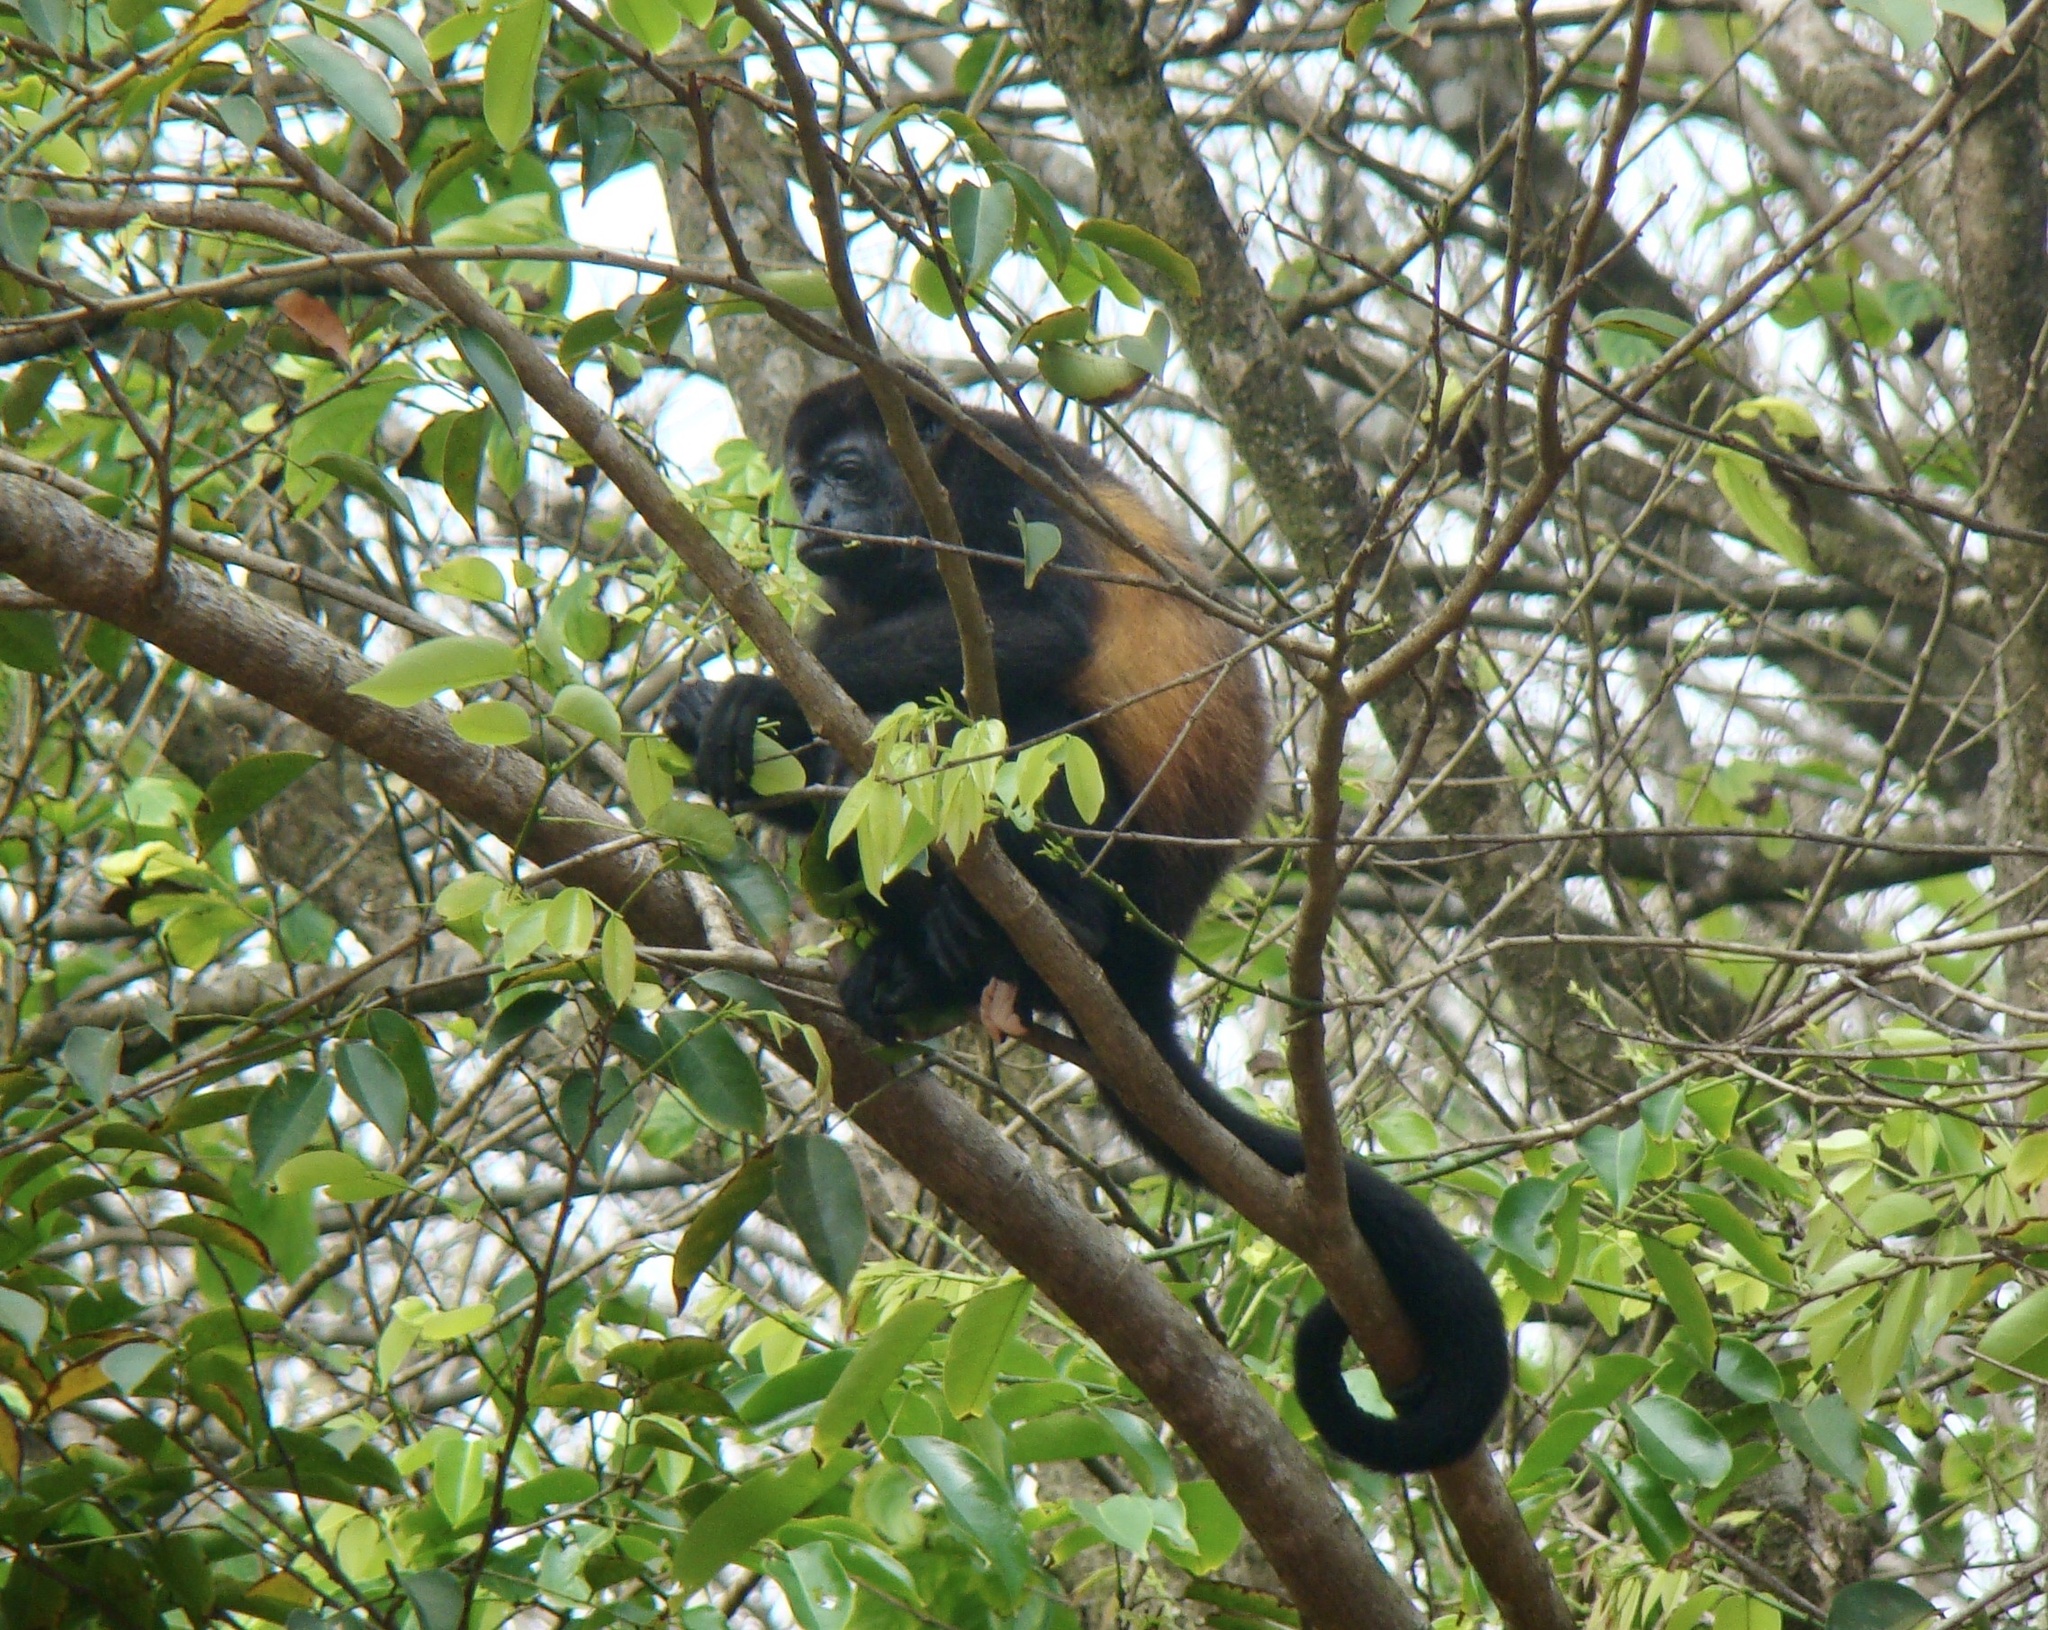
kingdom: Animalia
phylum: Chordata
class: Mammalia
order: Primates
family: Atelidae
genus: Alouatta
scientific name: Alouatta palliata
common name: Mantled howler
